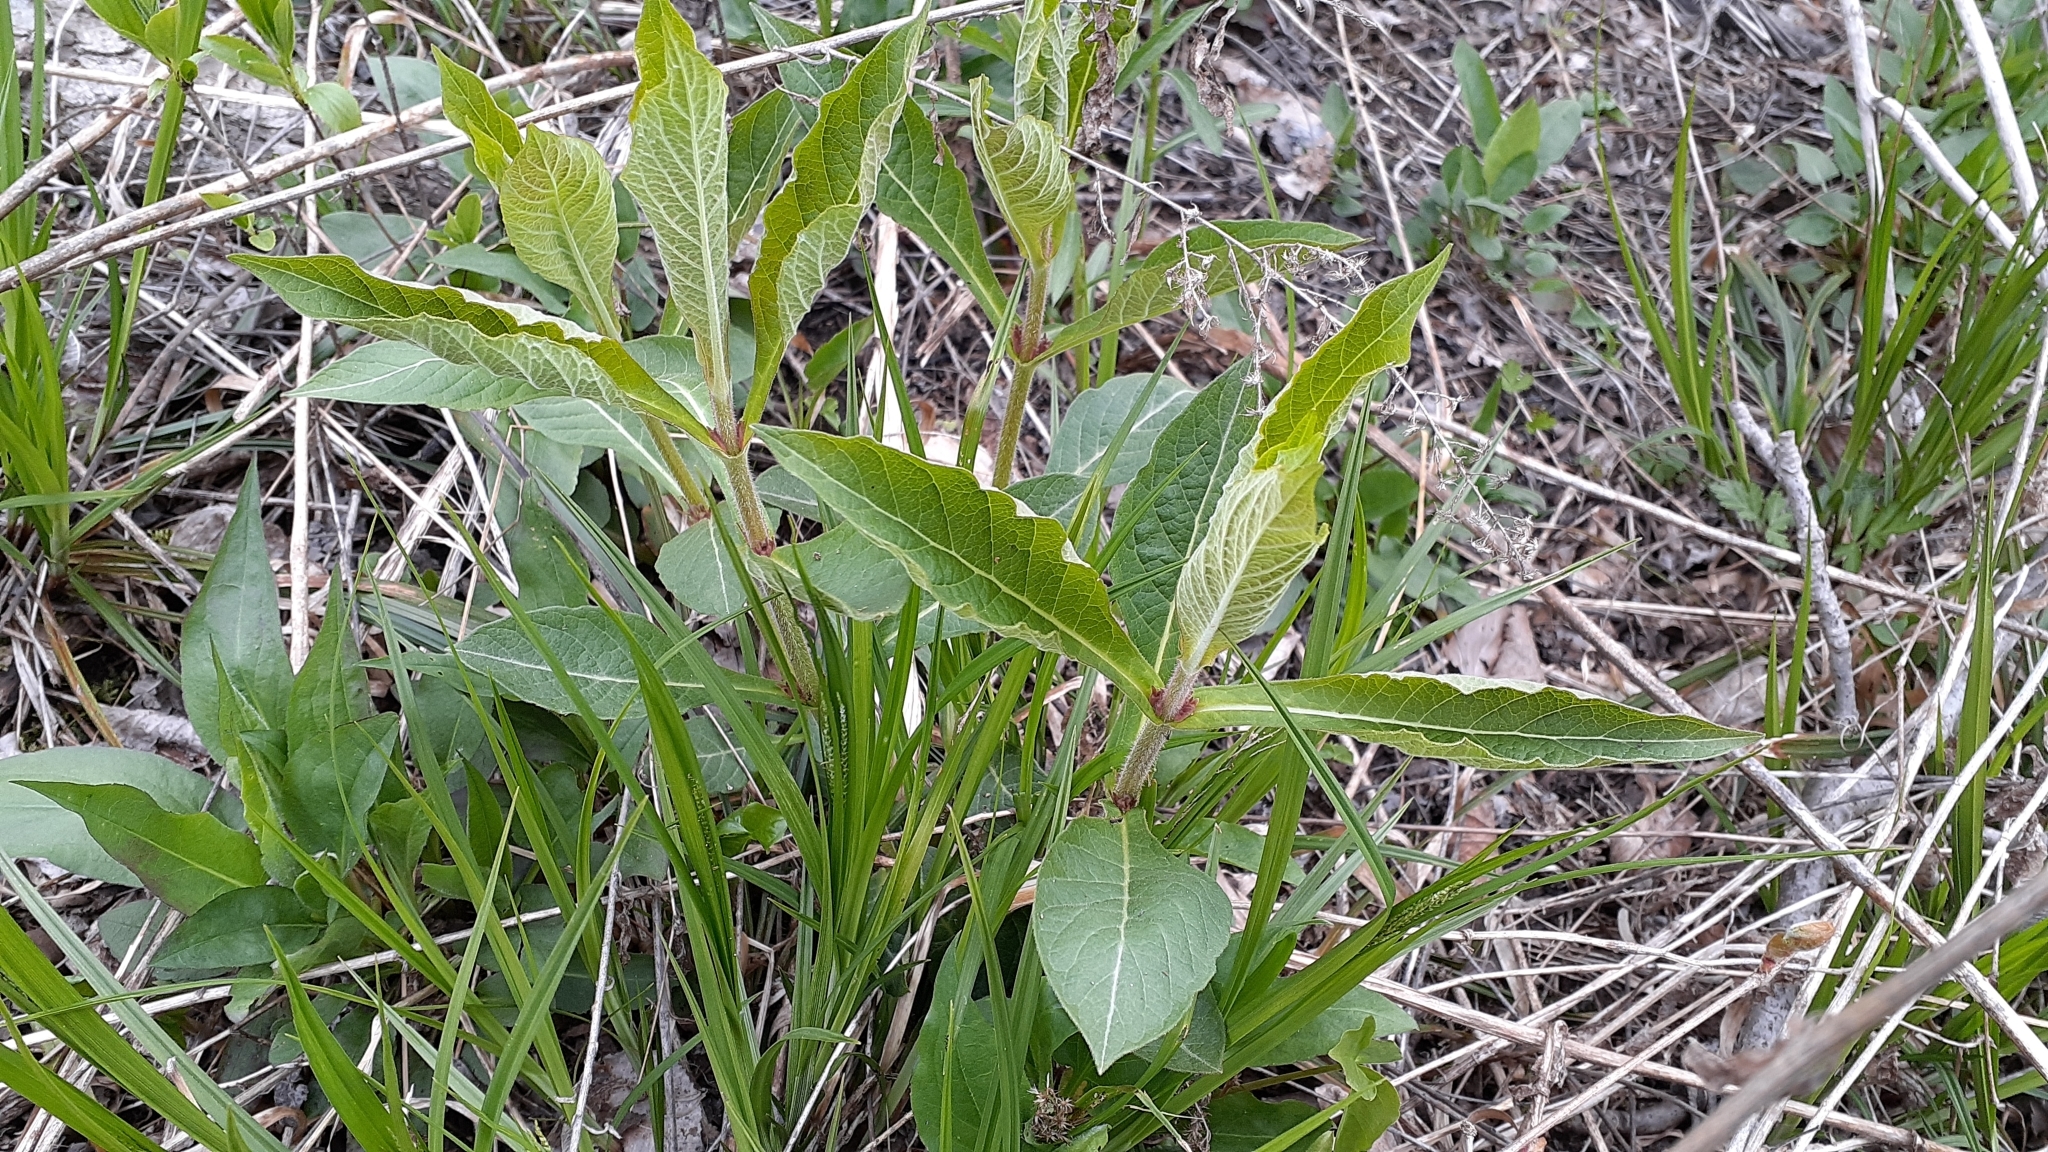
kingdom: Plantae
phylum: Tracheophyta
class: Magnoliopsida
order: Dipsacales
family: Caprifoliaceae
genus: Triosteum
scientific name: Triosteum aurantiacum
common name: Coffee tinker's-weed
